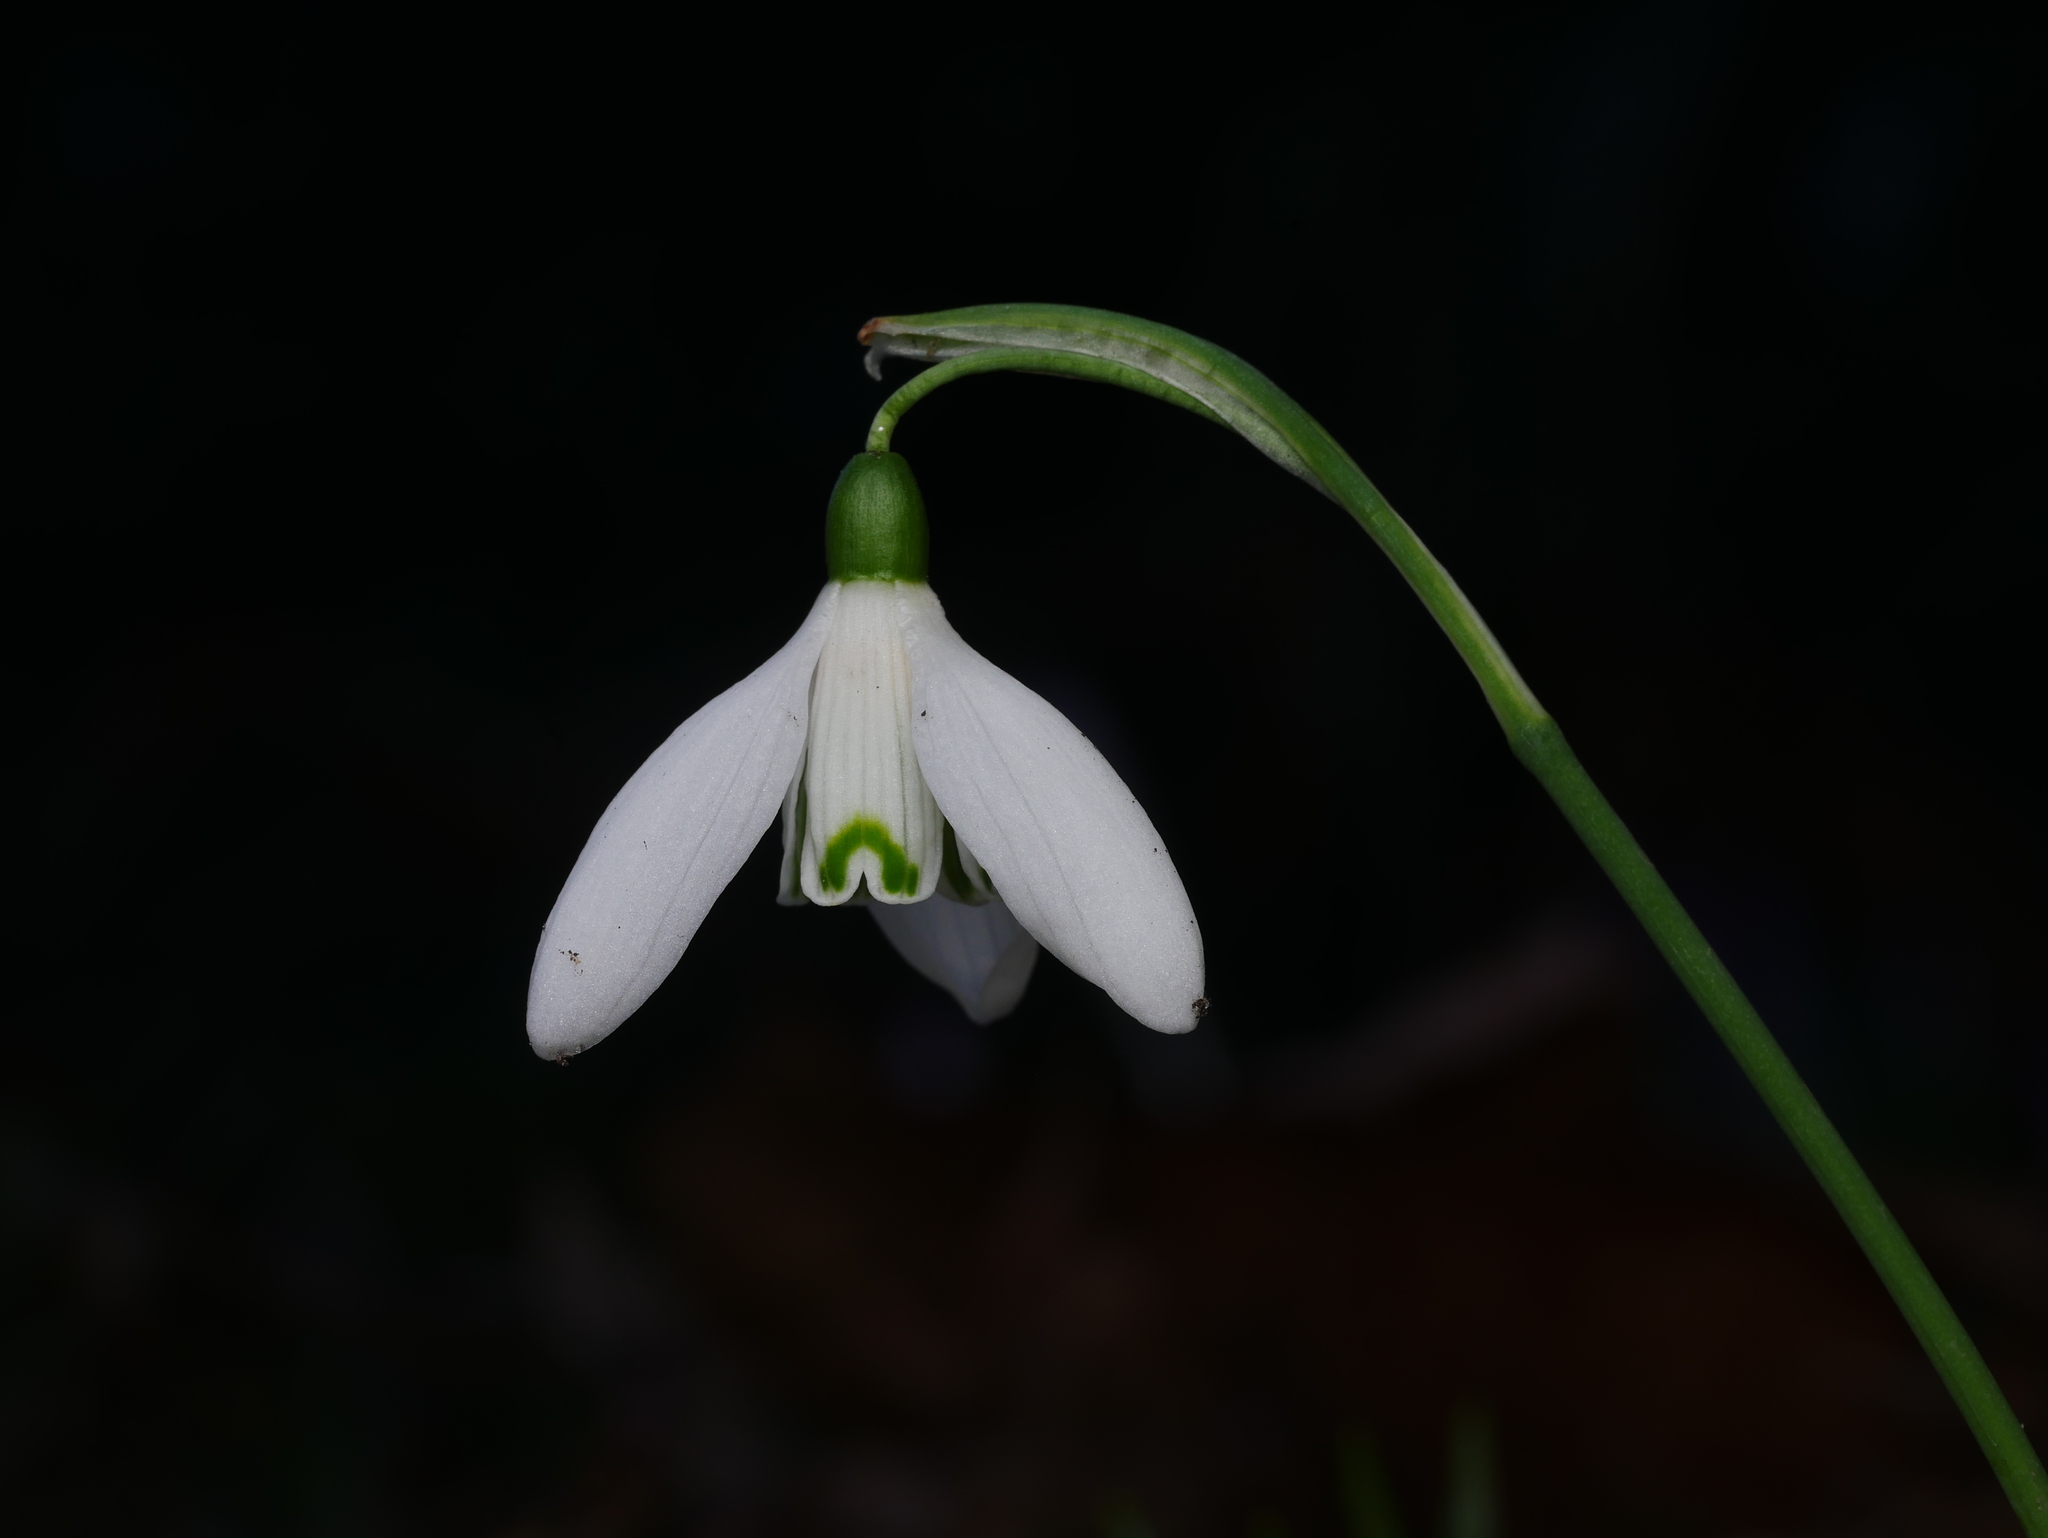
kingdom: Plantae
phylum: Tracheophyta
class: Liliopsida
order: Asparagales
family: Amaryllidaceae
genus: Galanthus
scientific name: Galanthus nivalis
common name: Snowdrop
